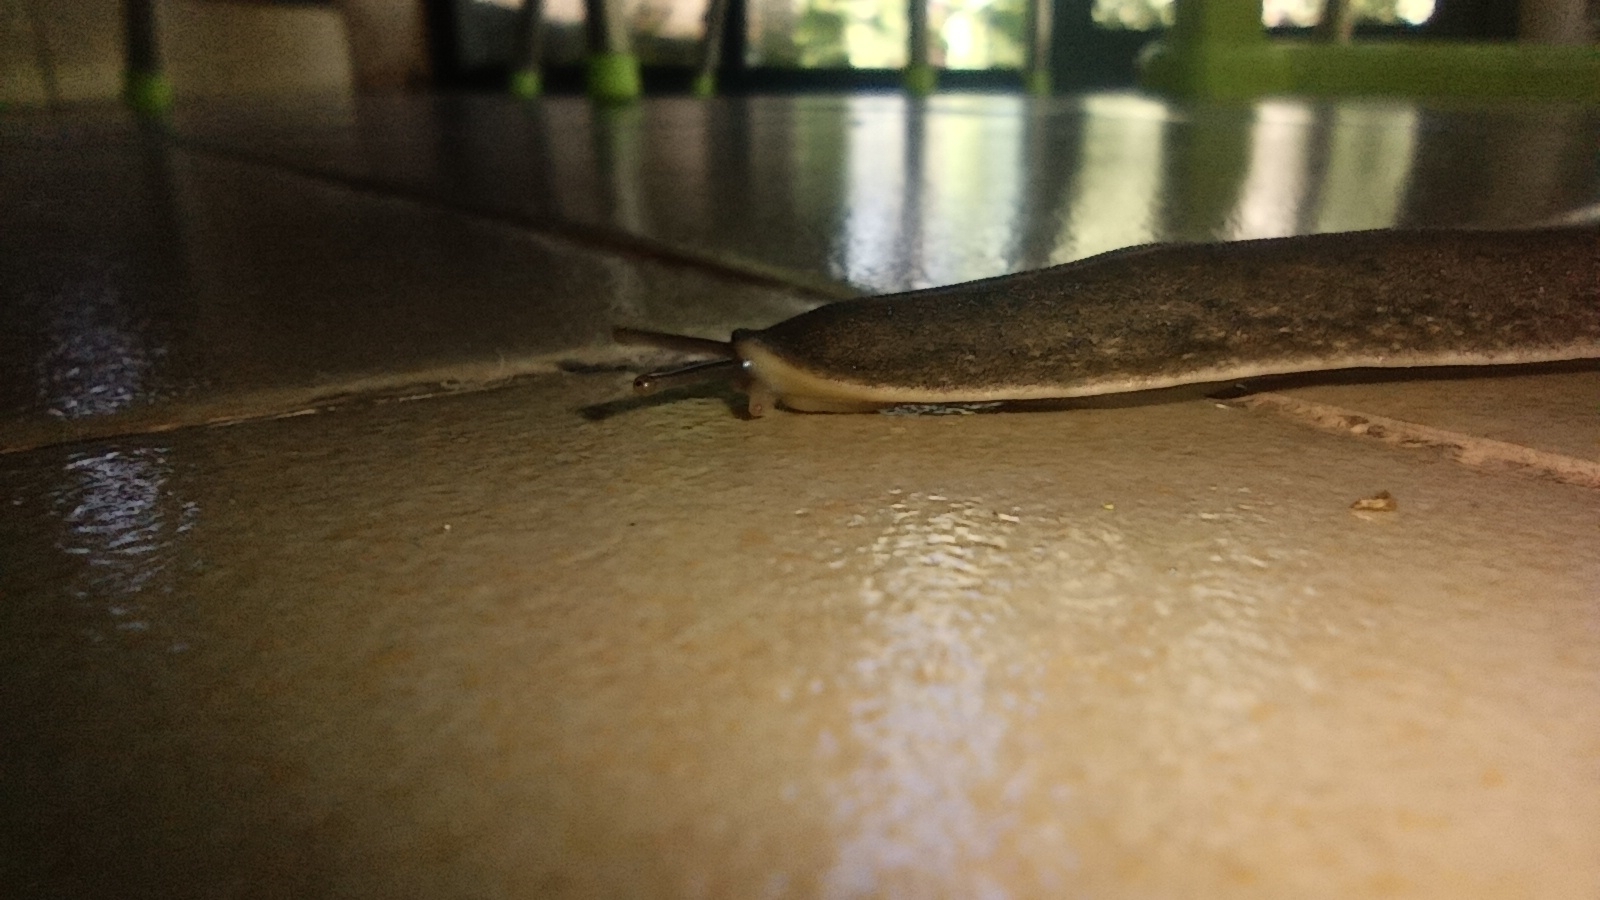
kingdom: Animalia
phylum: Mollusca
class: Gastropoda
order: Systellommatophora
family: Veronicellidae
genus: Laevicaulis
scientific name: Laevicaulis alte
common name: Tropical leatherleaf
